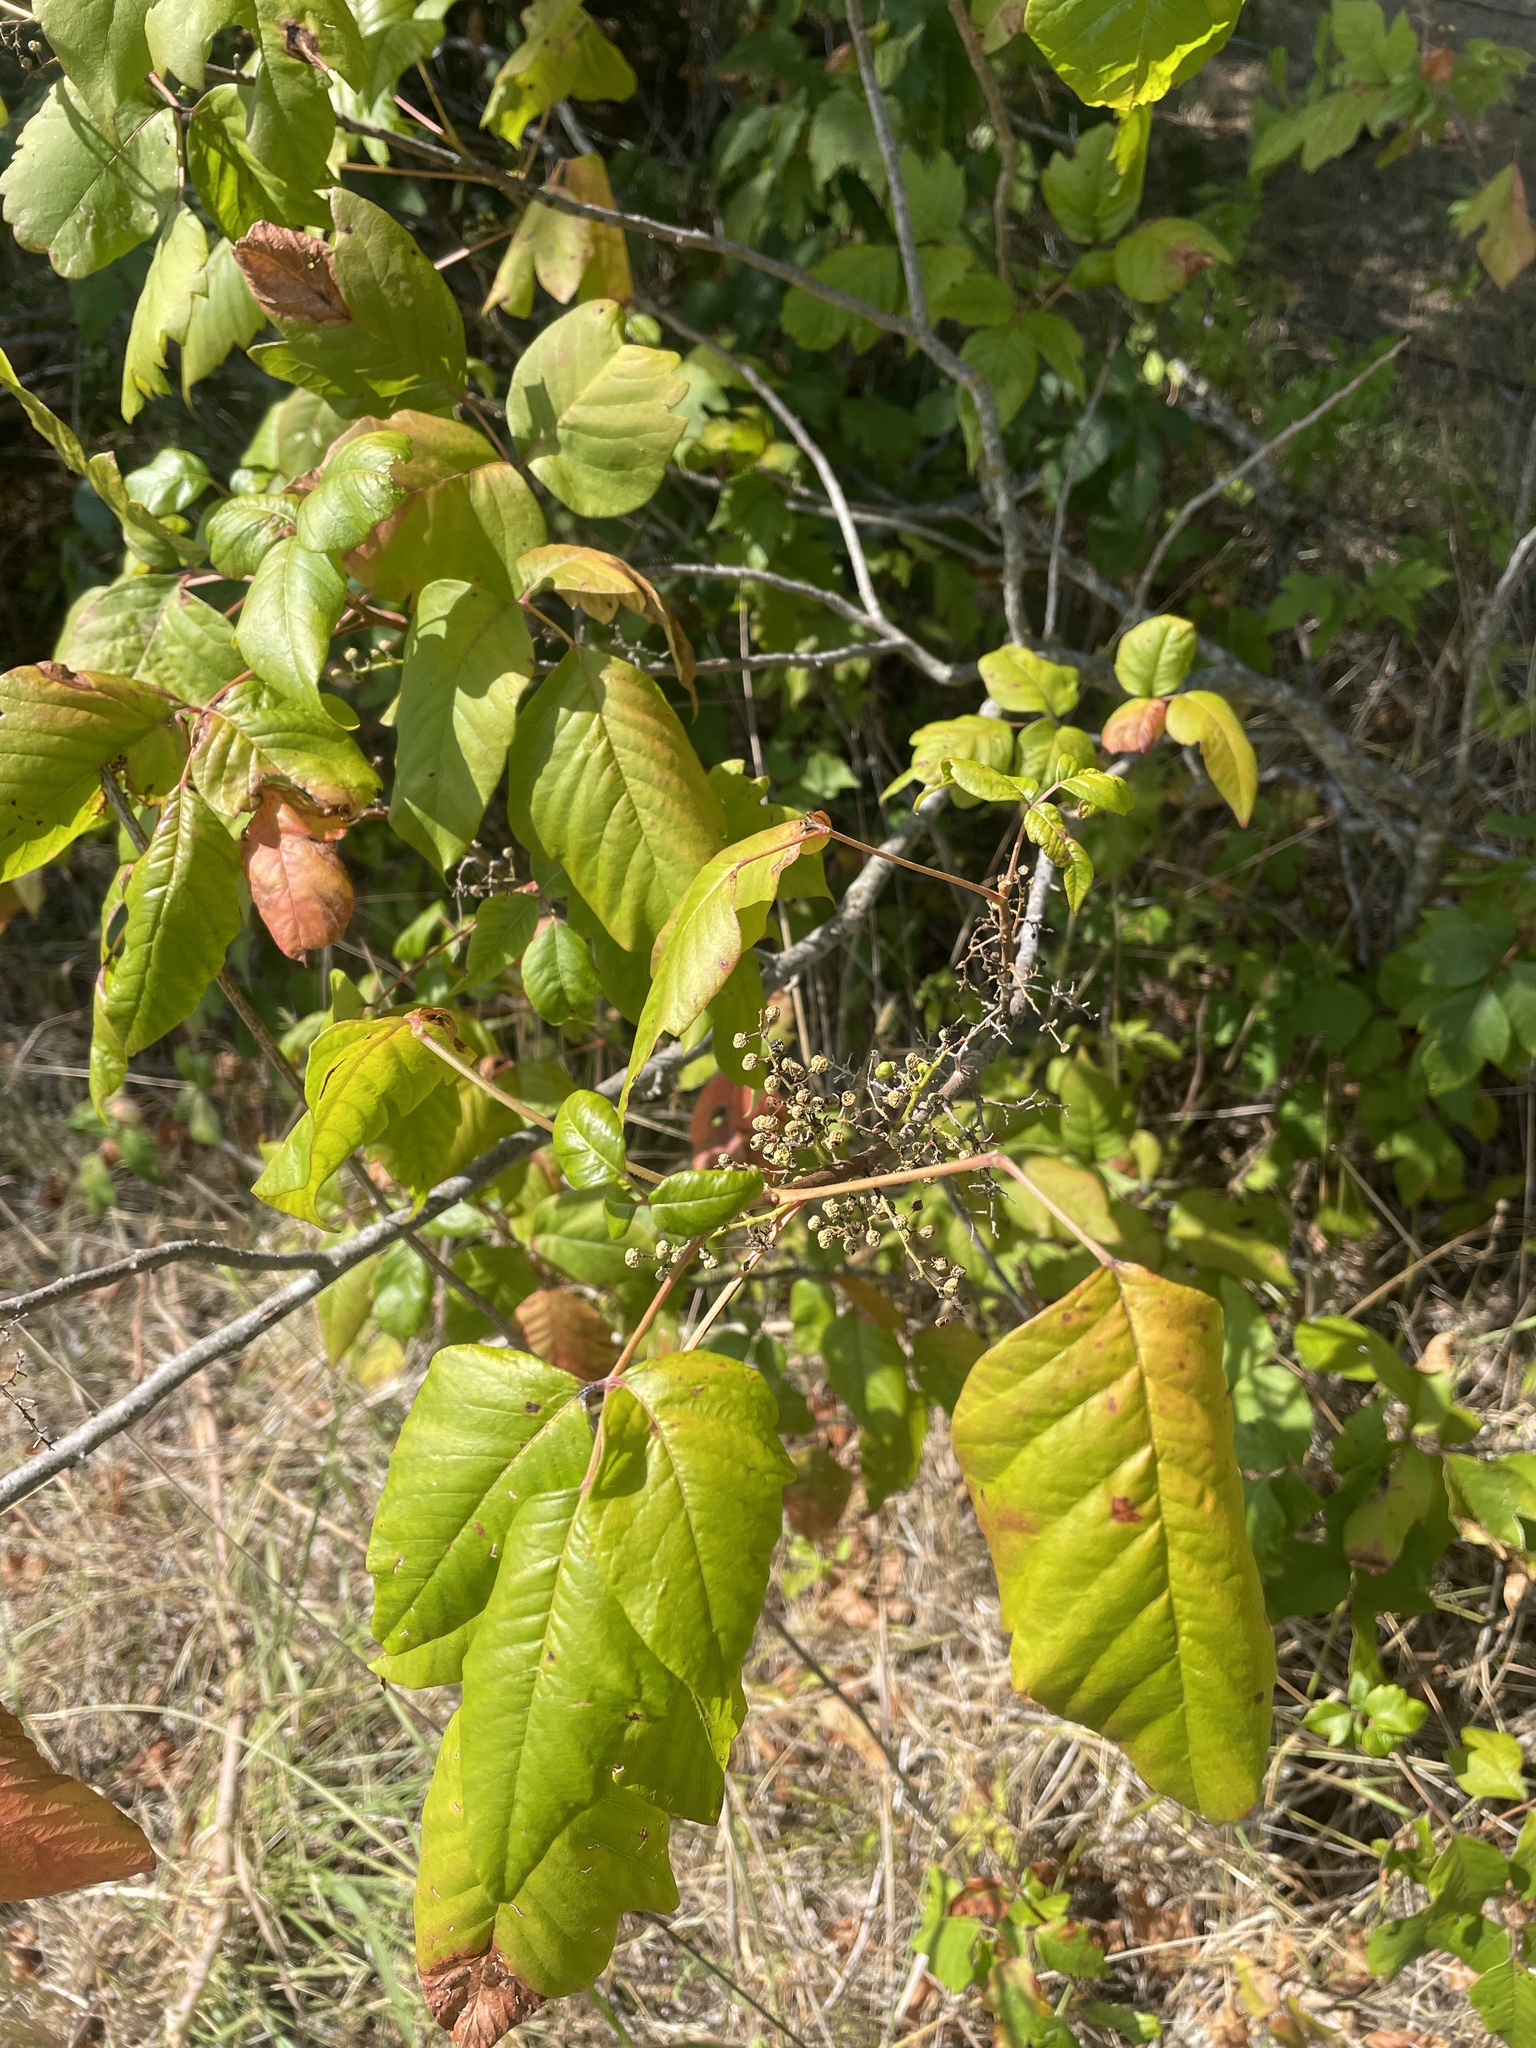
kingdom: Plantae
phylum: Tracheophyta
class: Magnoliopsida
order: Sapindales
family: Anacardiaceae
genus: Toxicodendron
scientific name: Toxicodendron radicans
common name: Poison ivy
